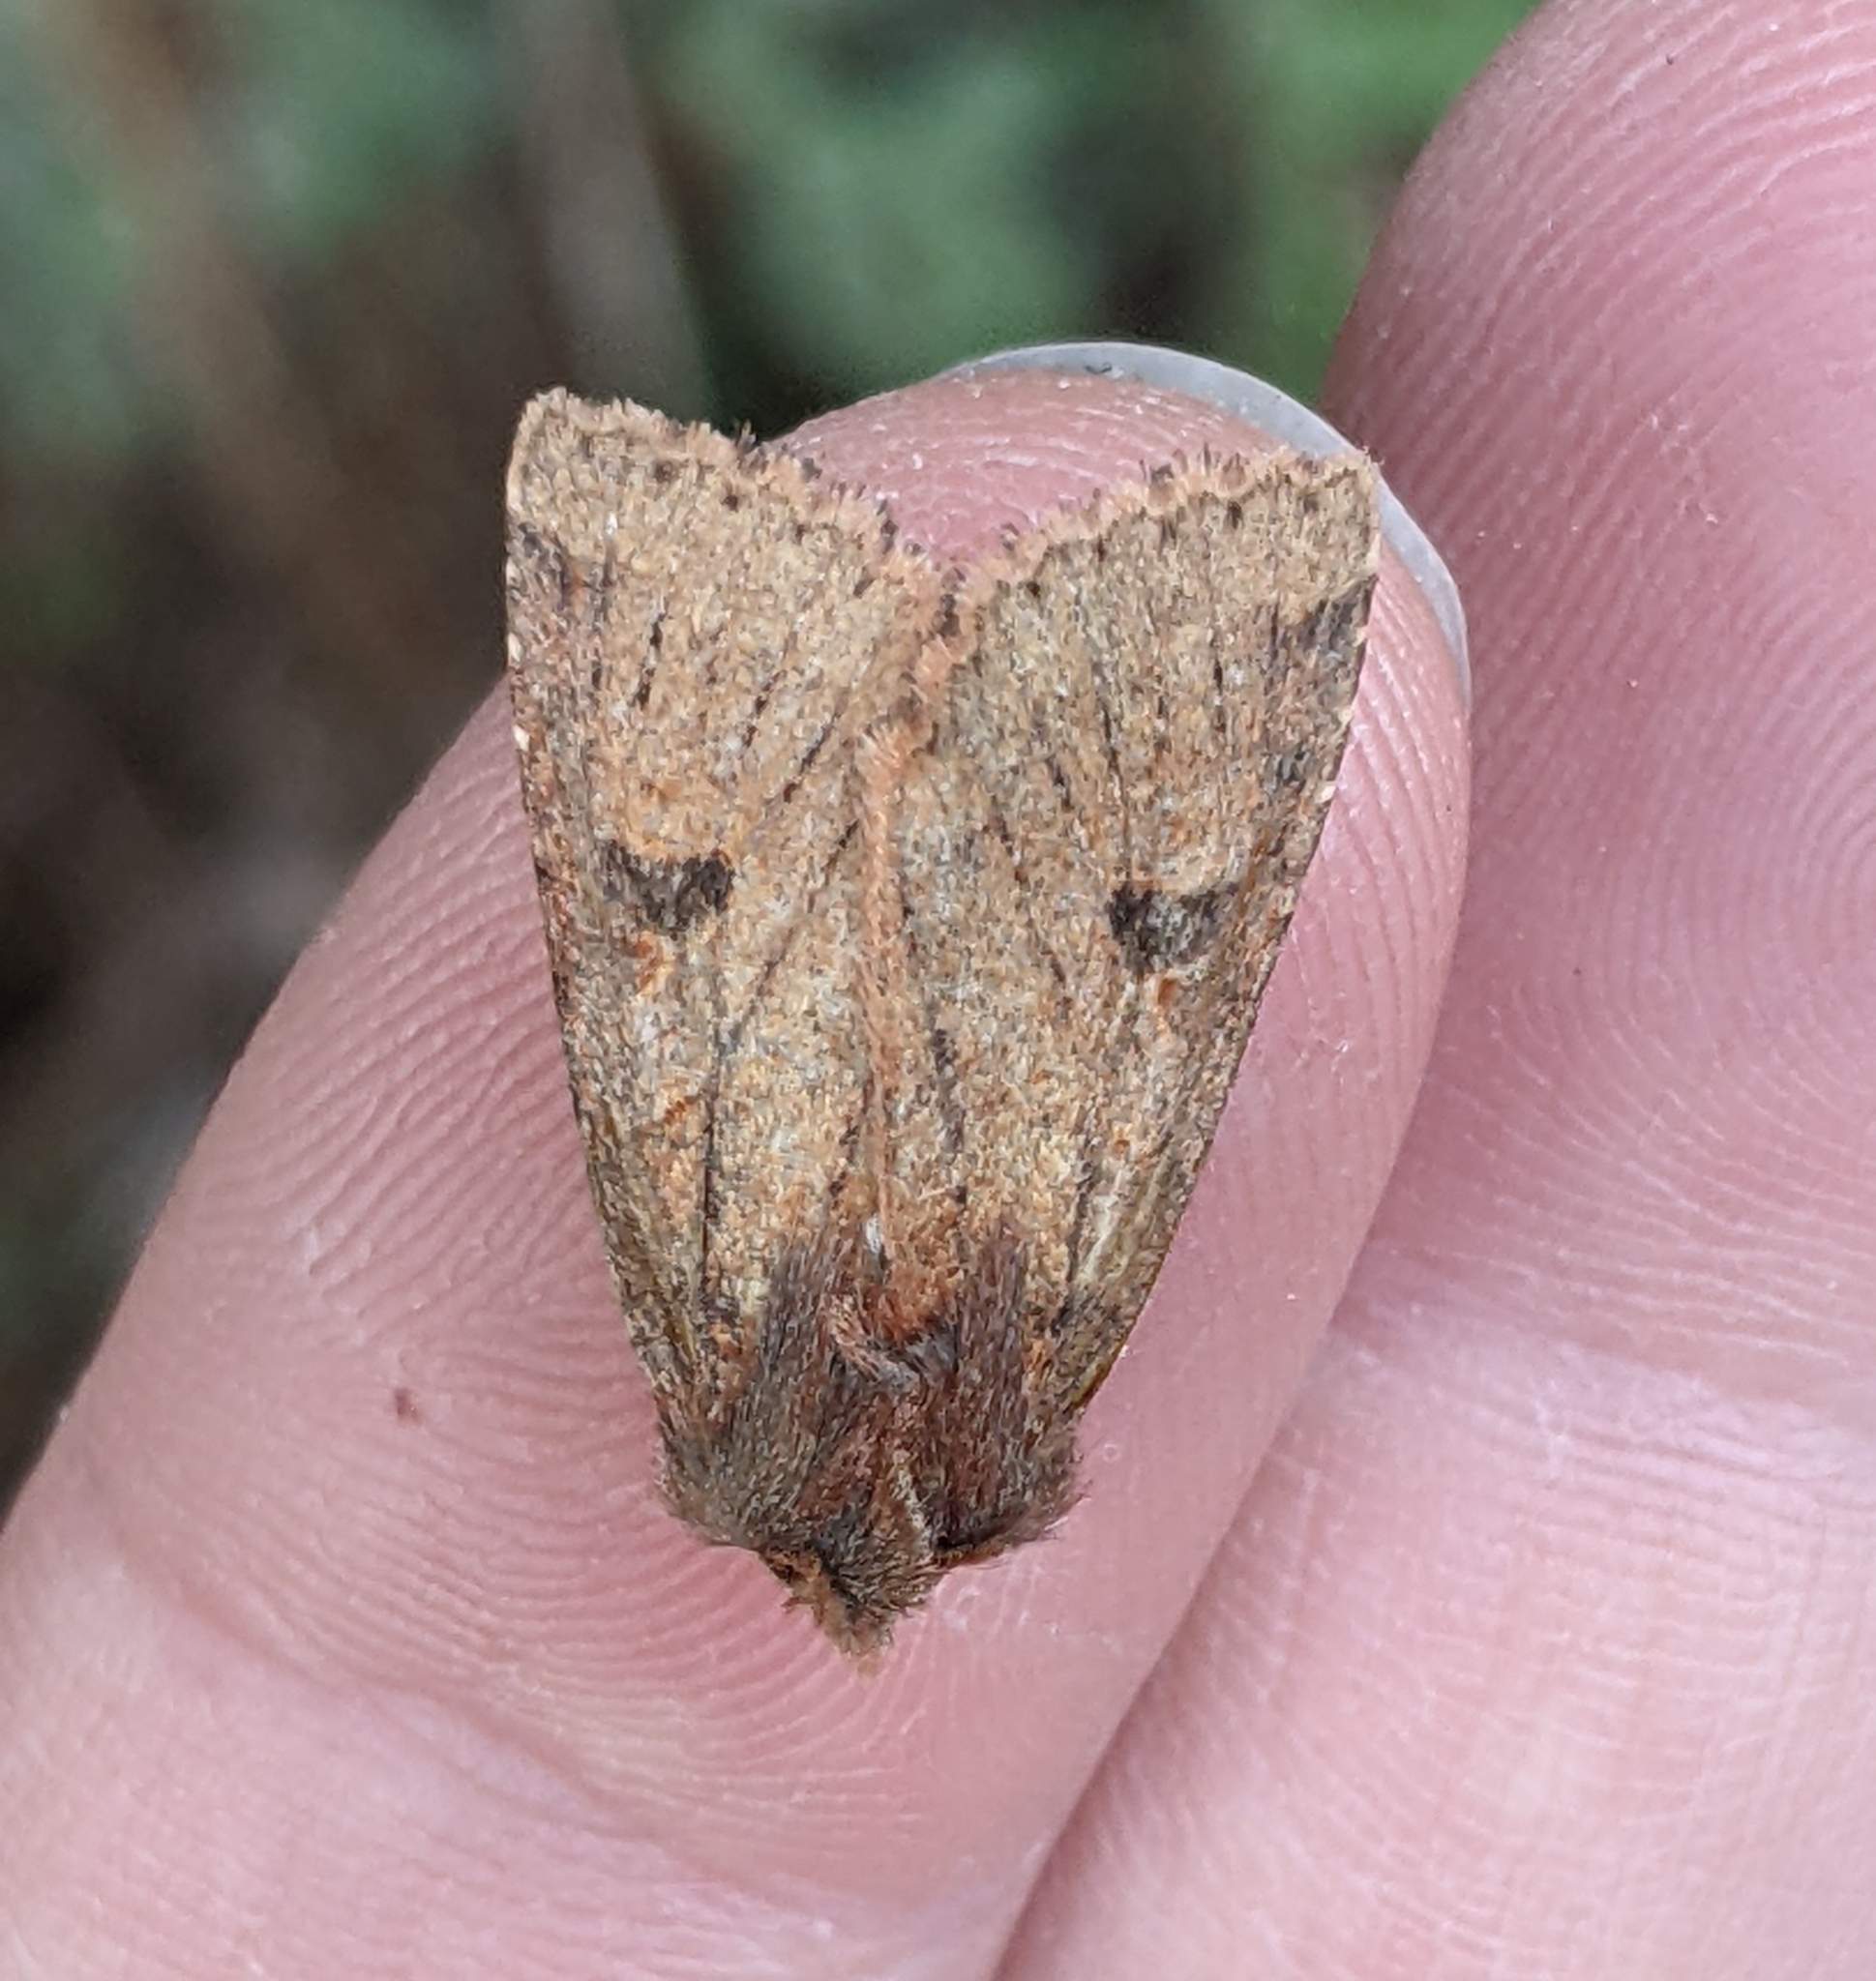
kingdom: Animalia
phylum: Arthropoda
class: Insecta
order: Lepidoptera
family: Noctuidae
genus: Orthosia
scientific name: Orthosia praeses
